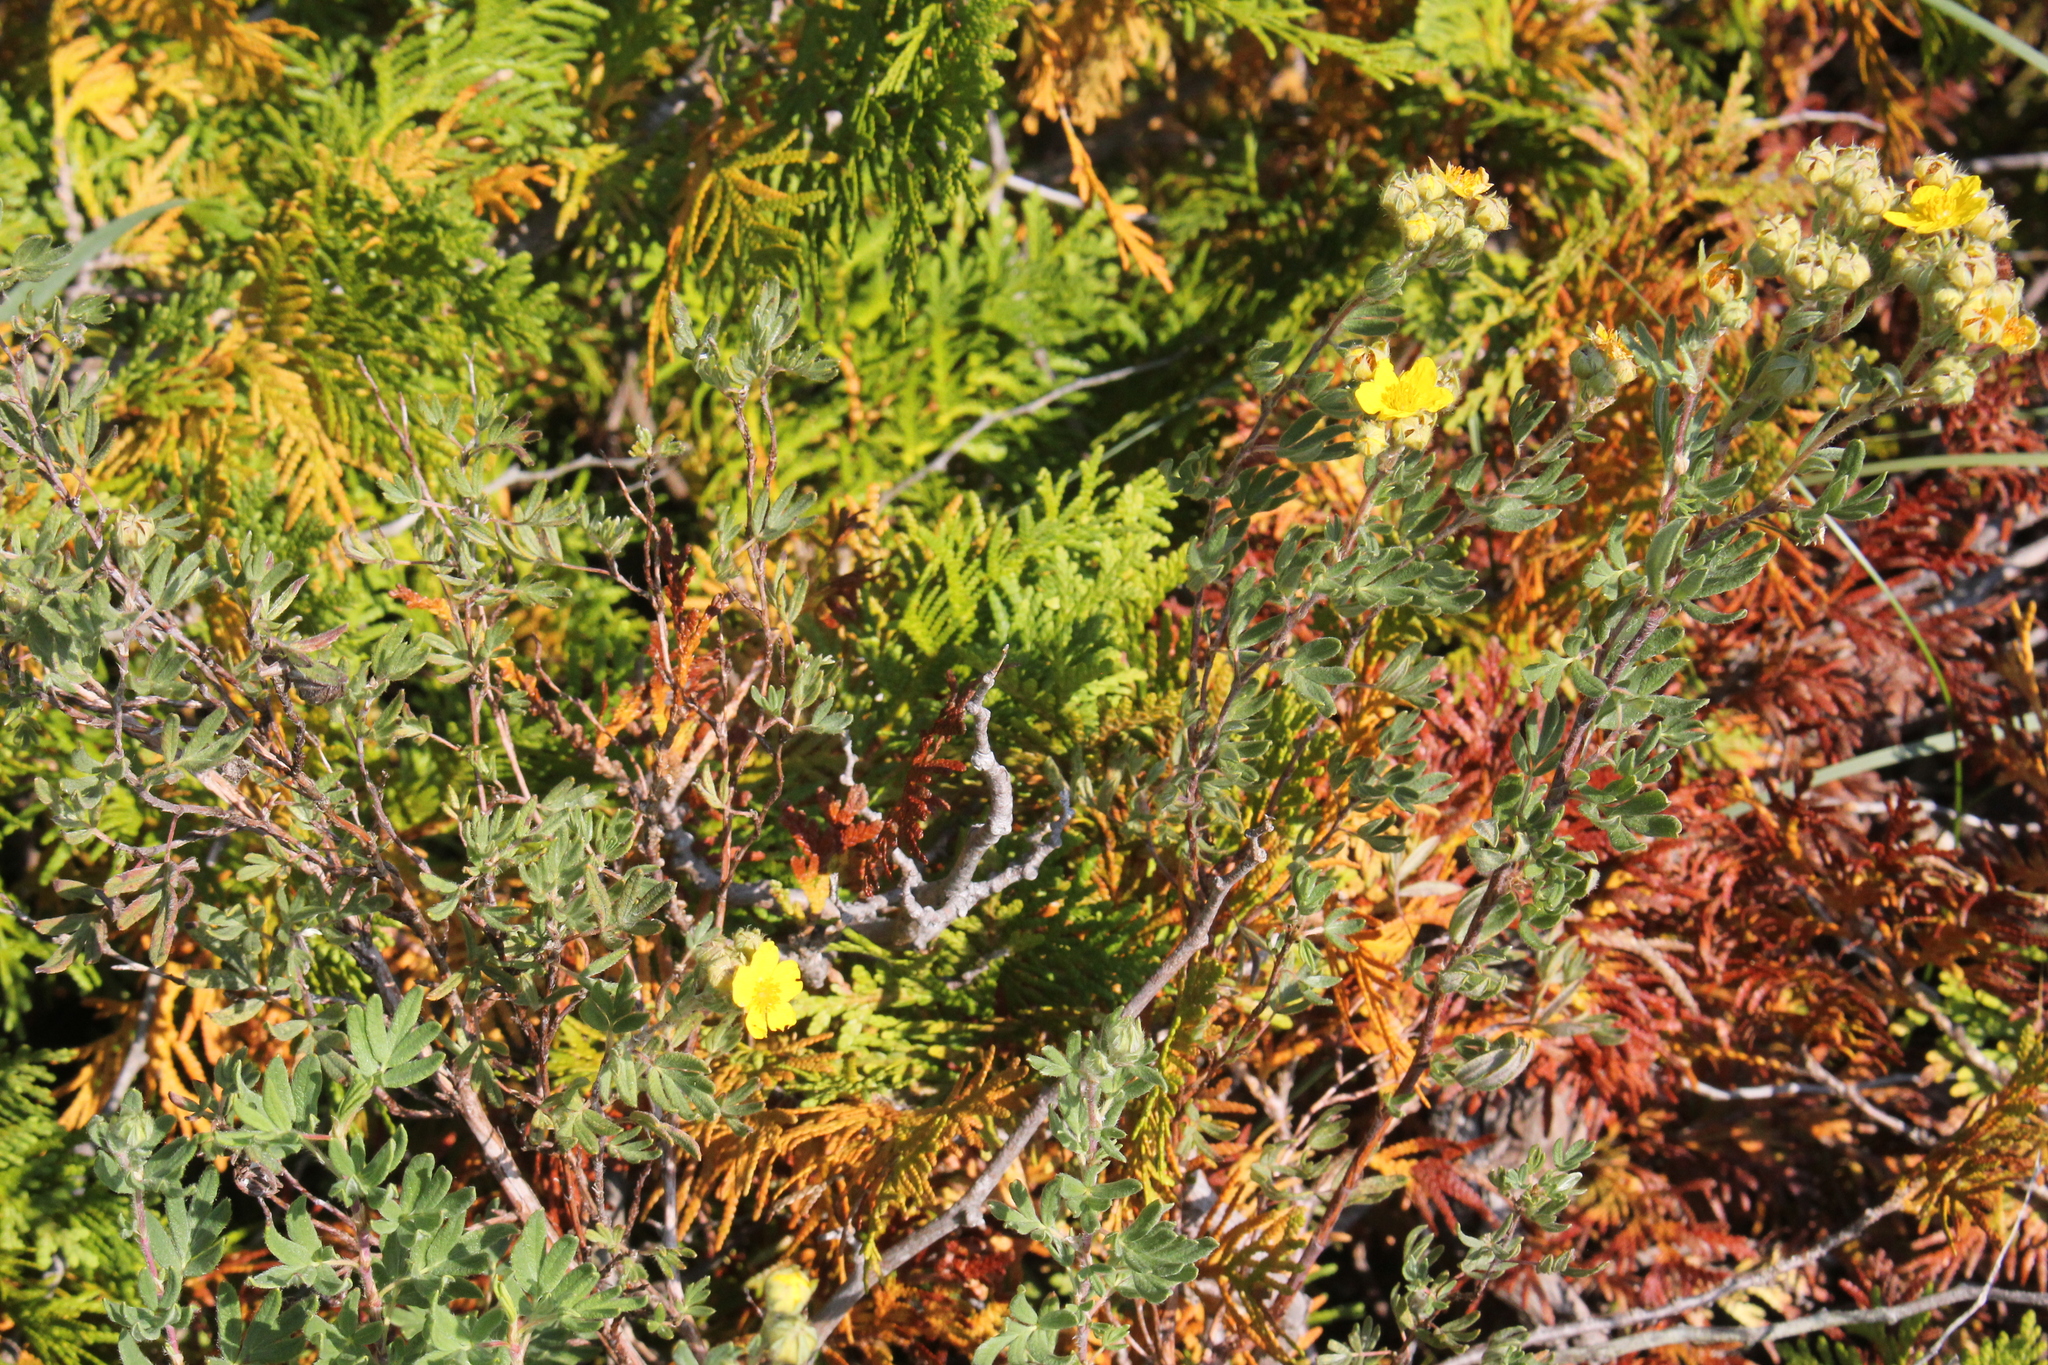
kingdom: Plantae
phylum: Tracheophyta
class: Magnoliopsida
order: Rosales
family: Rosaceae
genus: Dasiphora
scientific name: Dasiphora fruticosa
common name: Shrubby cinquefoil
